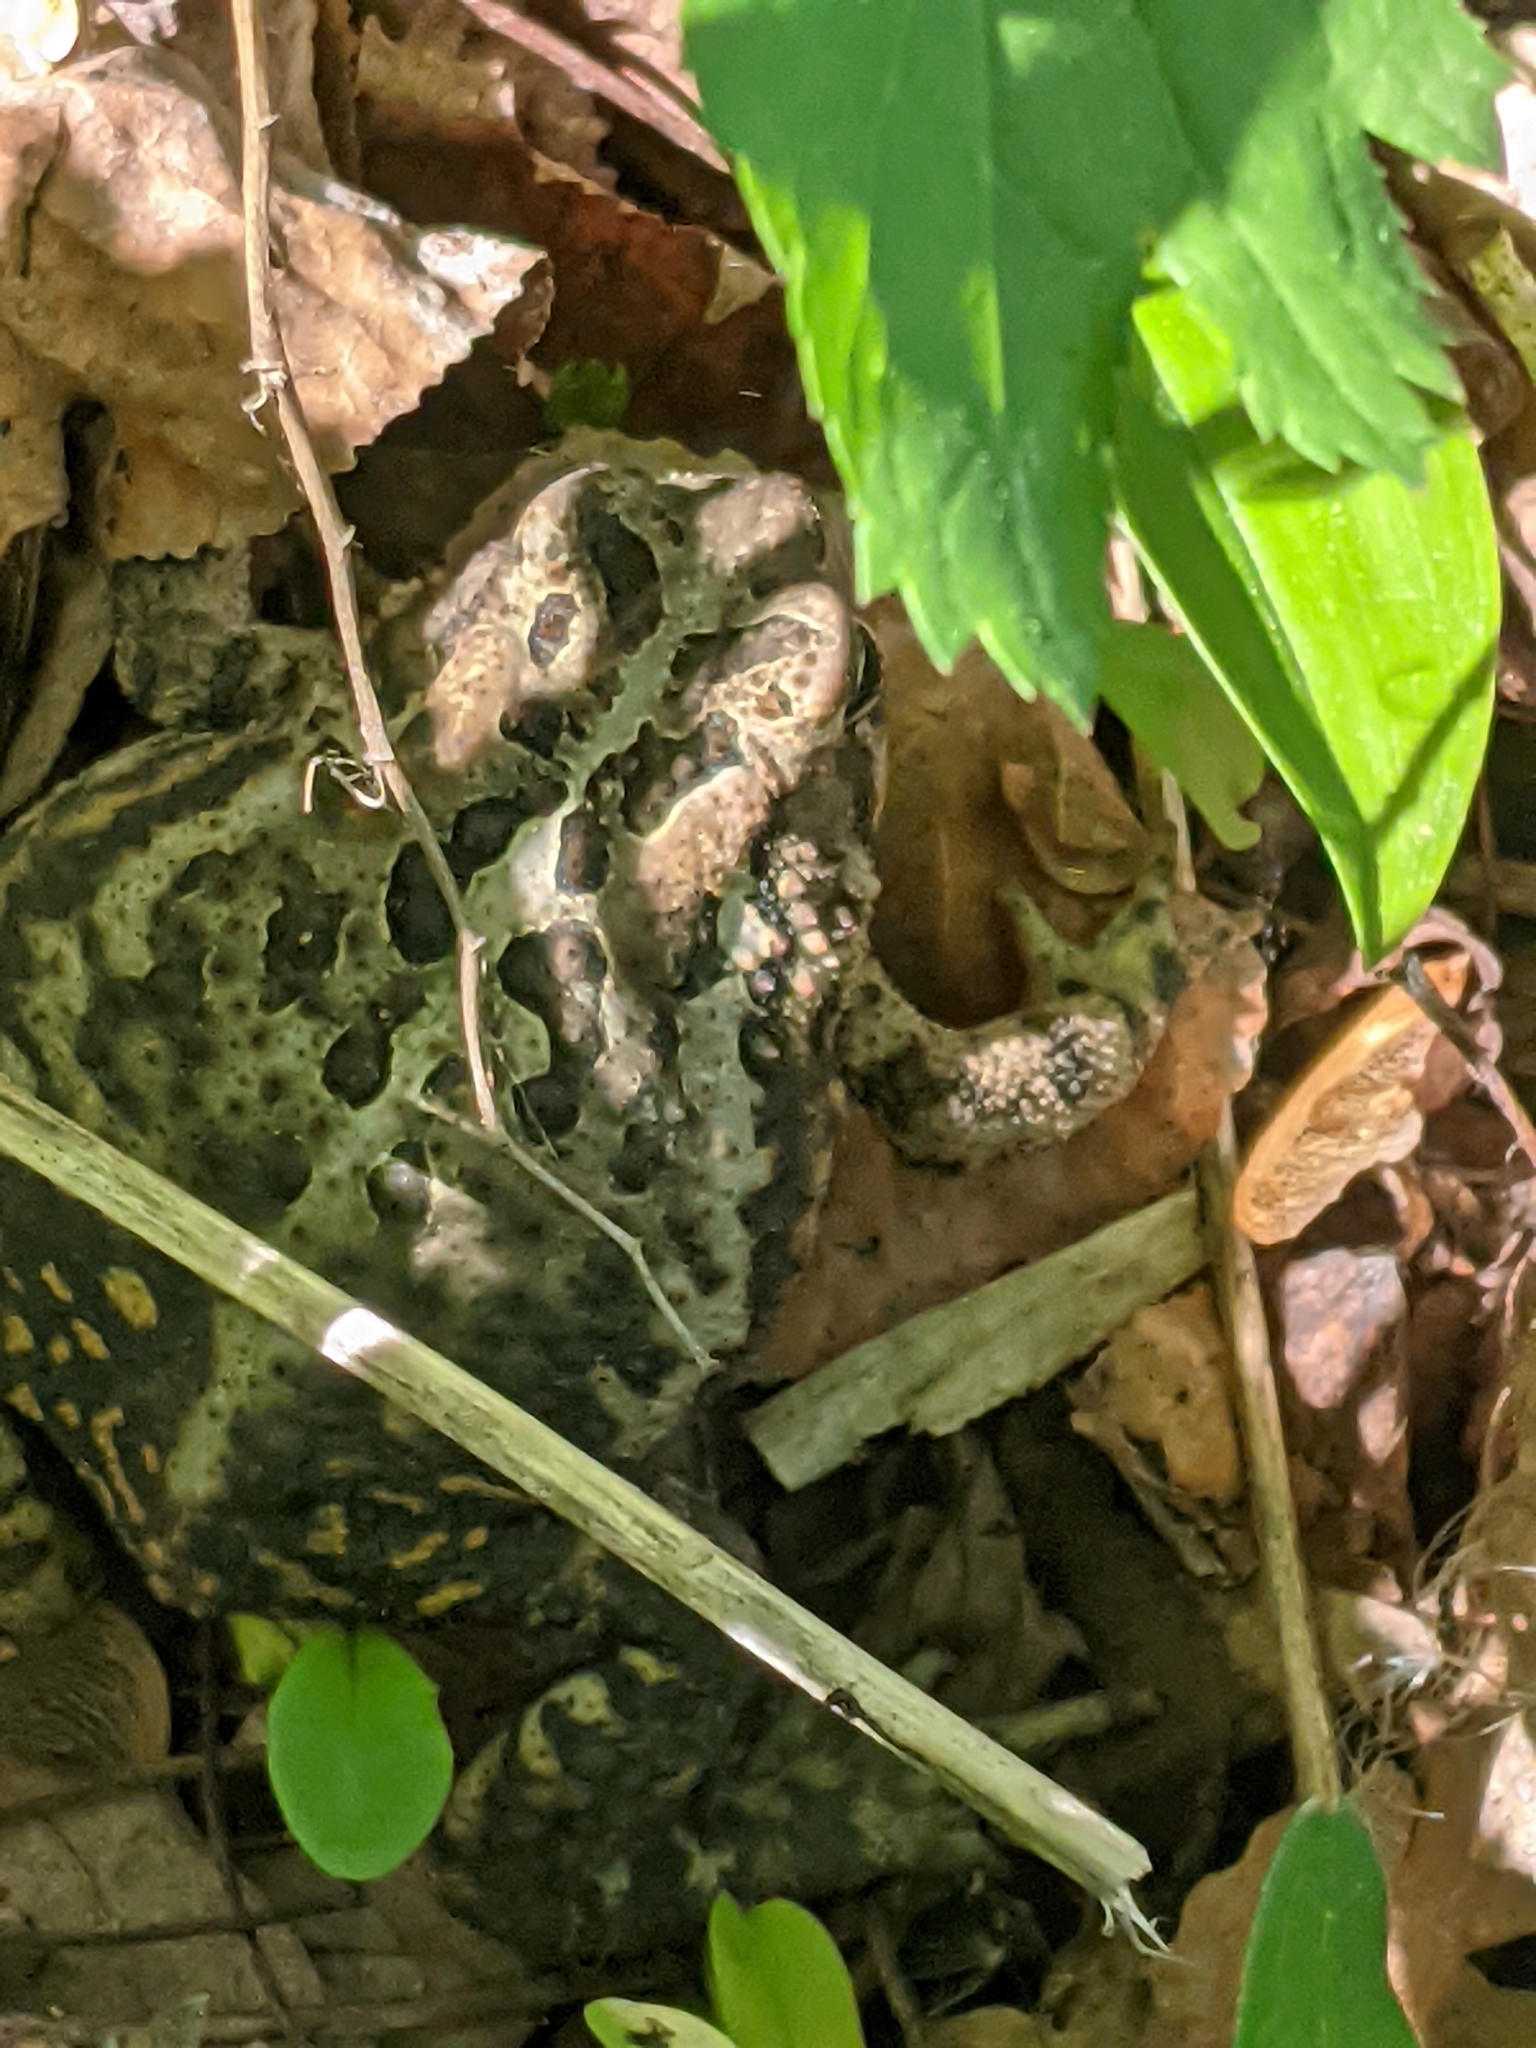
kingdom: Animalia
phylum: Chordata
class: Amphibia
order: Anura
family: Bufonidae
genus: Anaxyrus
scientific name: Anaxyrus americanus
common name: American toad
